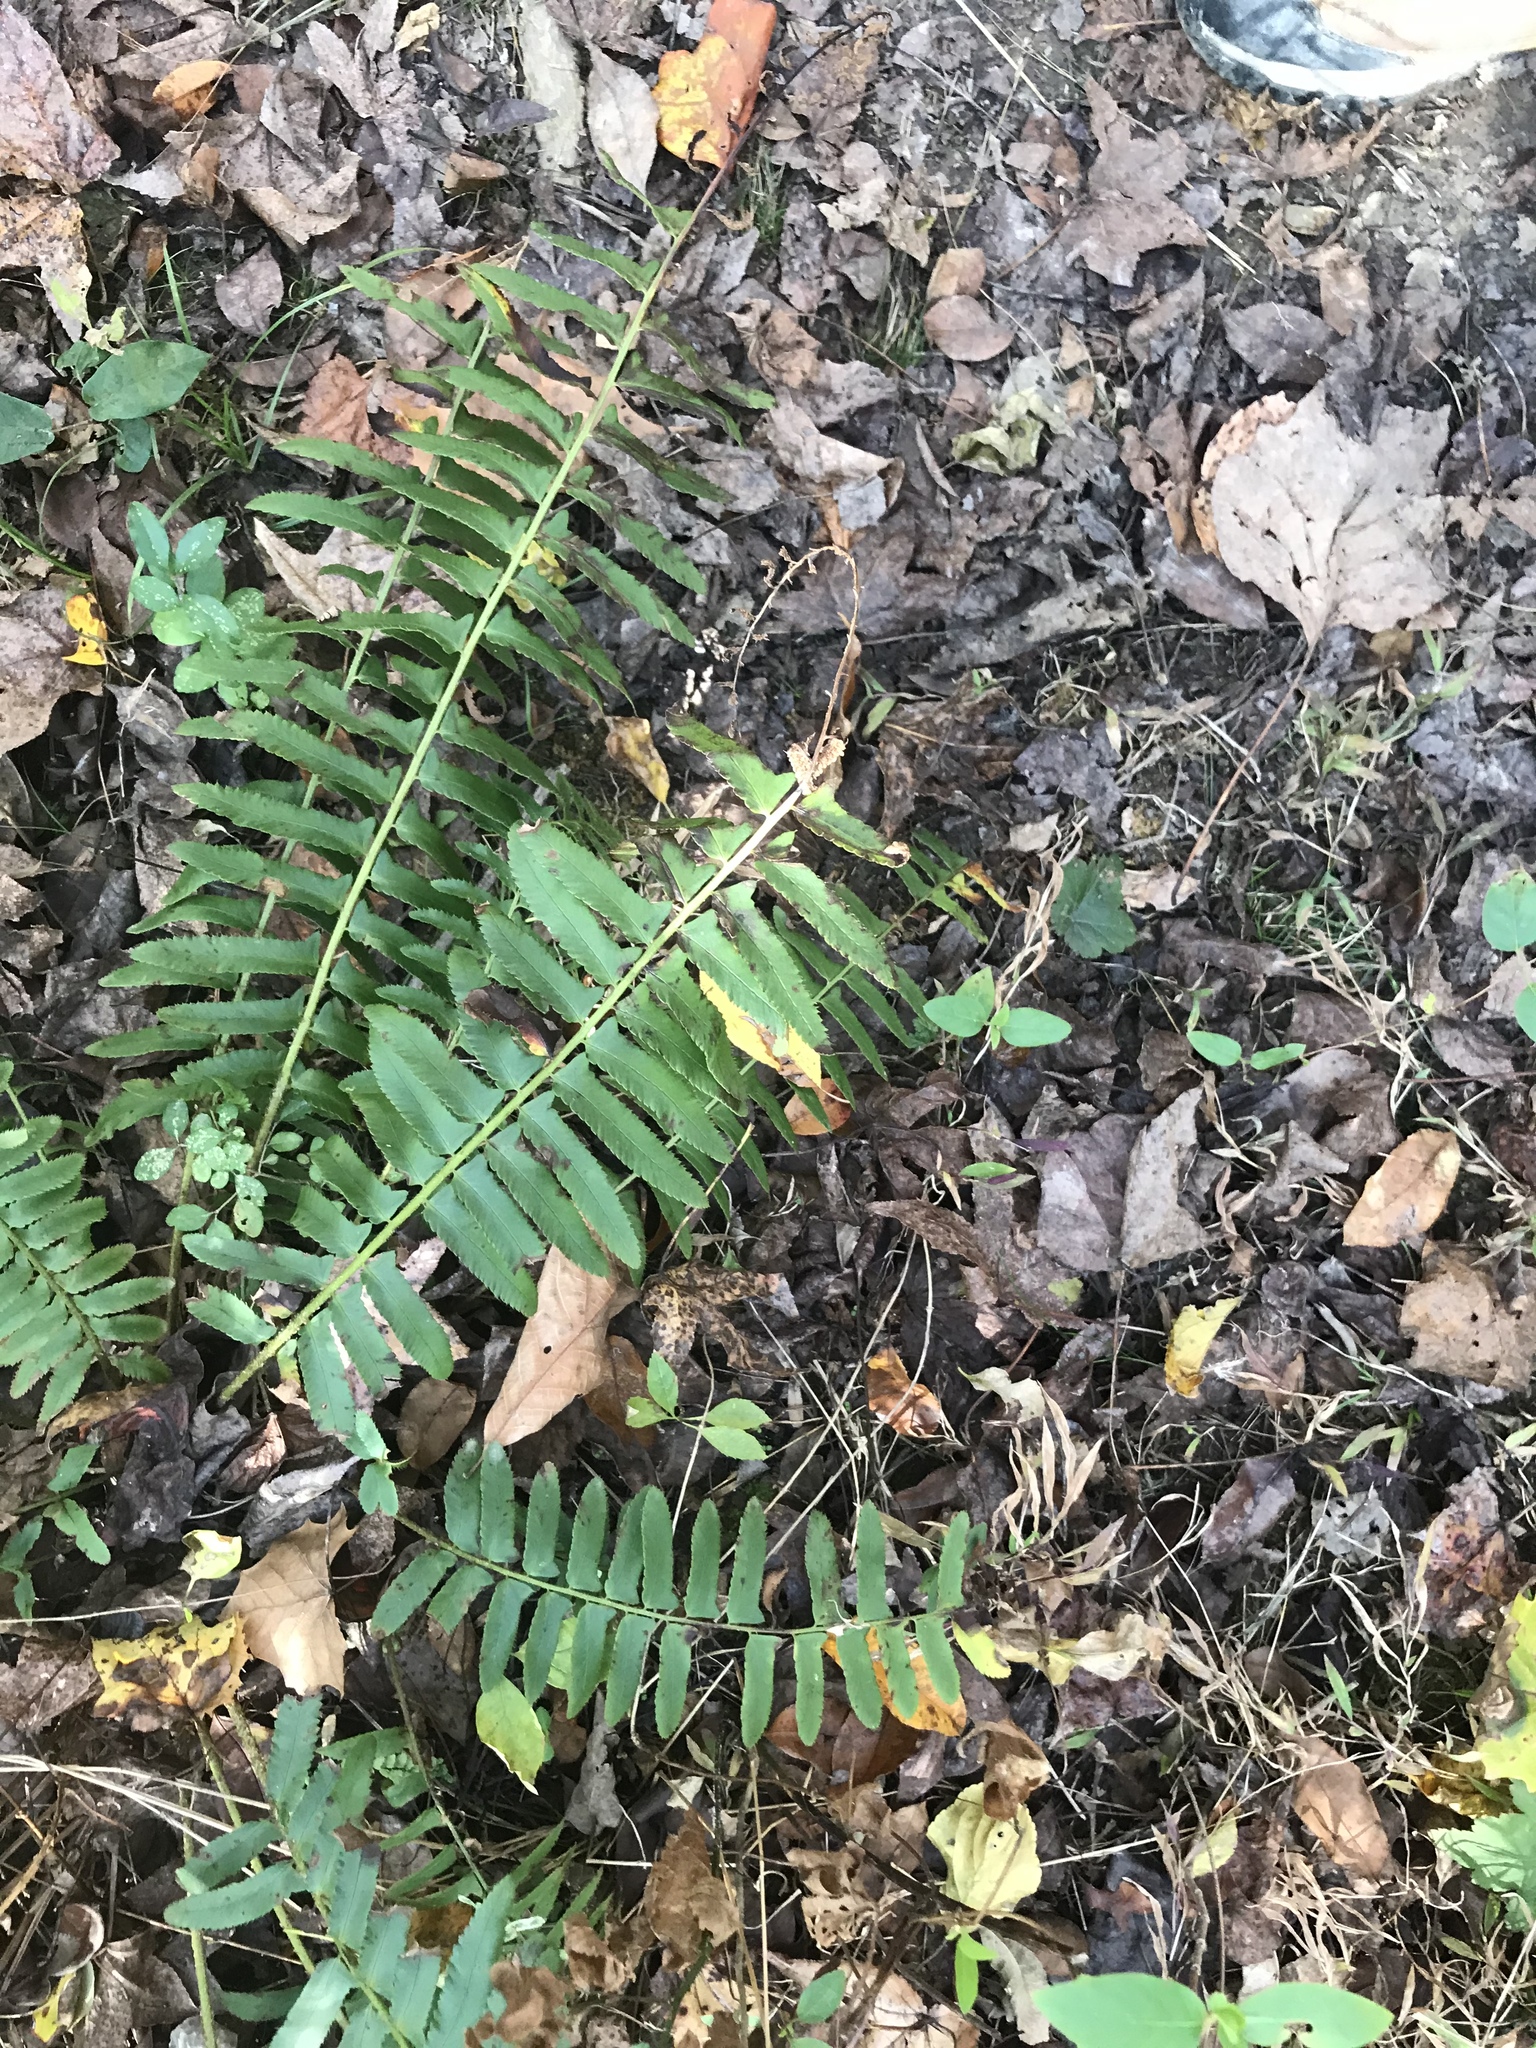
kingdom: Plantae
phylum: Tracheophyta
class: Polypodiopsida
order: Polypodiales
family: Dryopteridaceae
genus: Polystichum
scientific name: Polystichum acrostichoides
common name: Christmas fern
